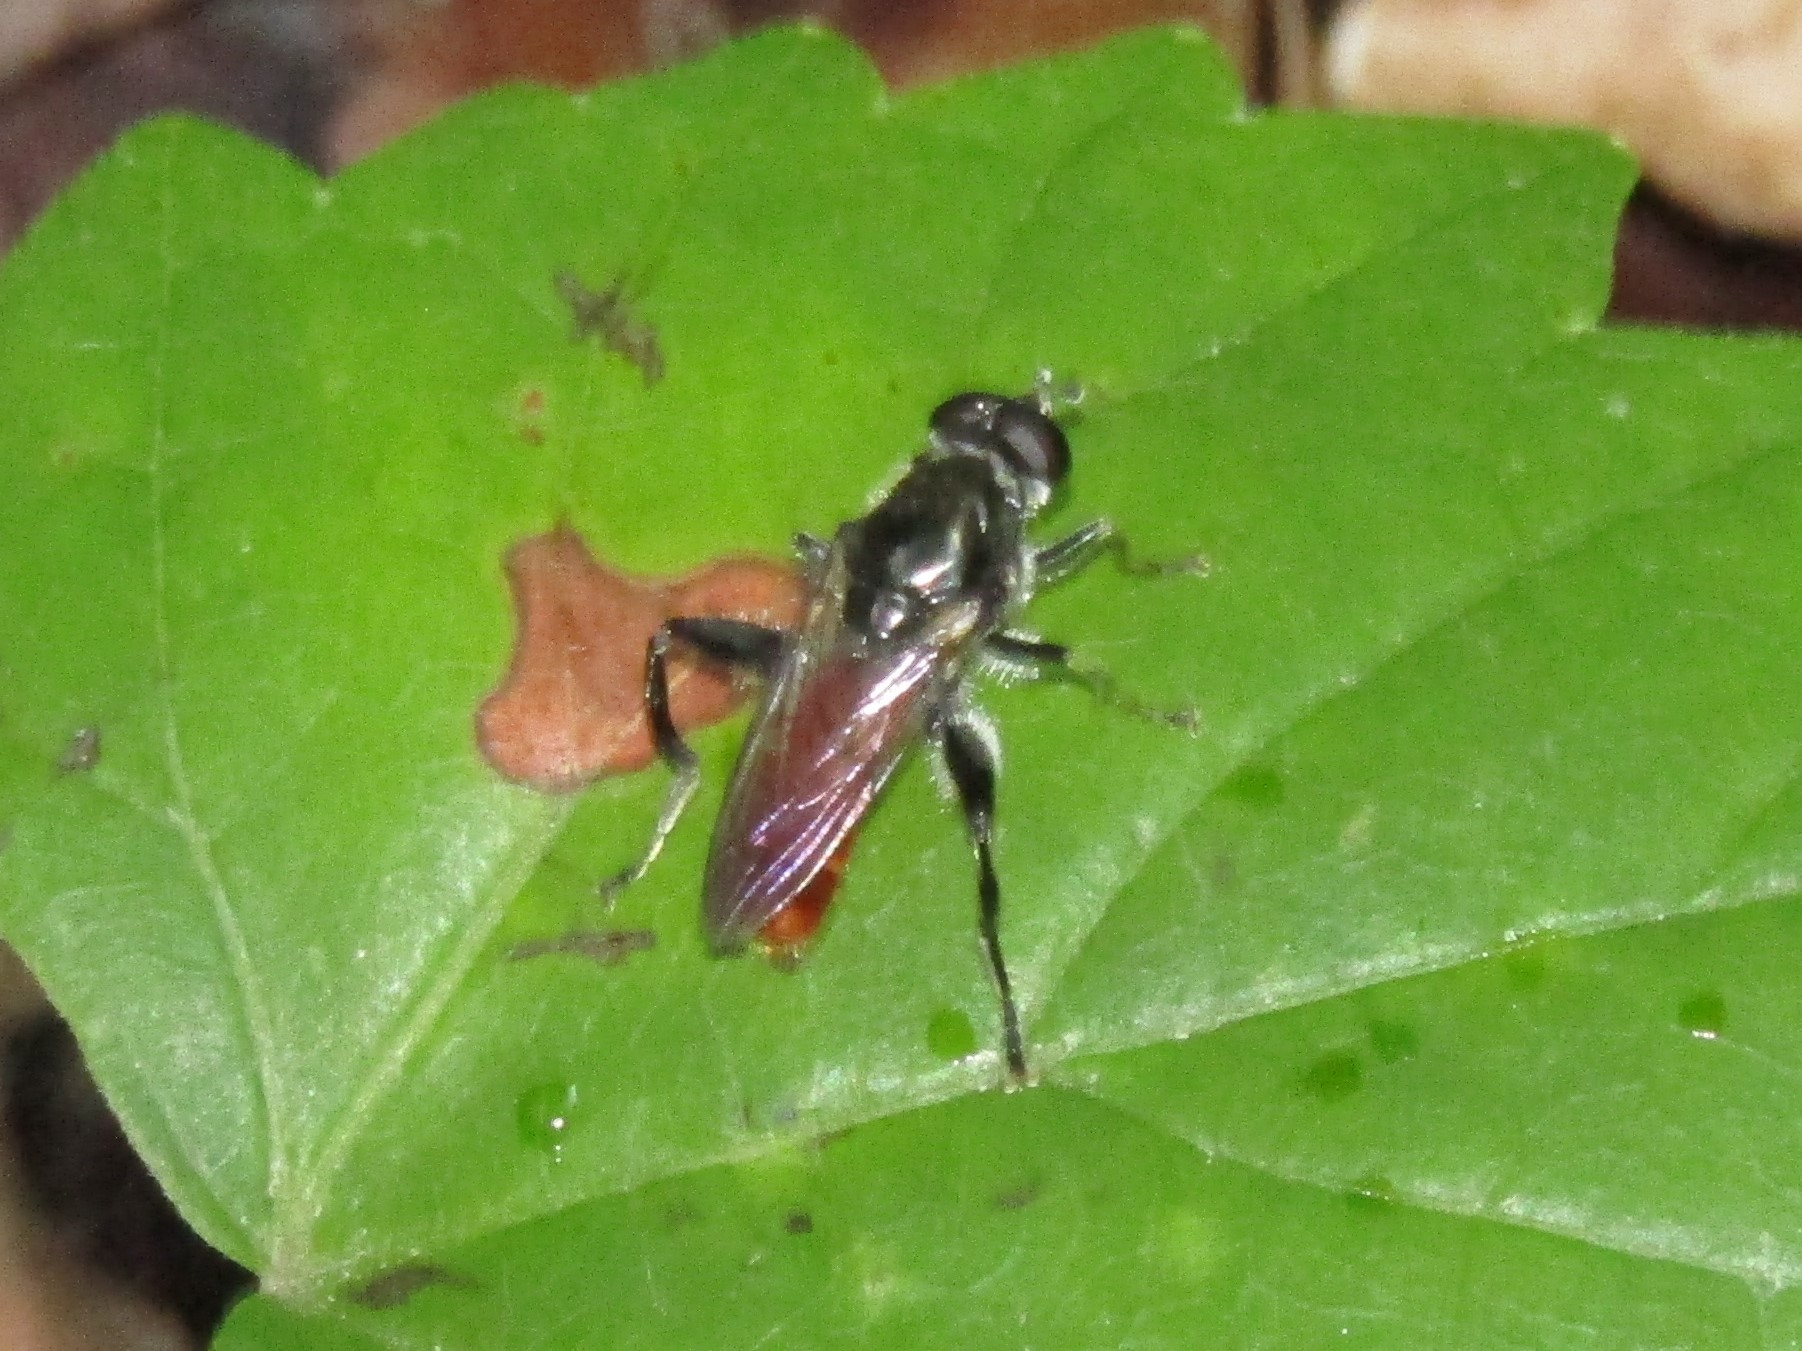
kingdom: Animalia
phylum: Arthropoda
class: Insecta
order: Diptera
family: Syrphidae
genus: Brachypalpoides
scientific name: Brachypalpoides bicolor
